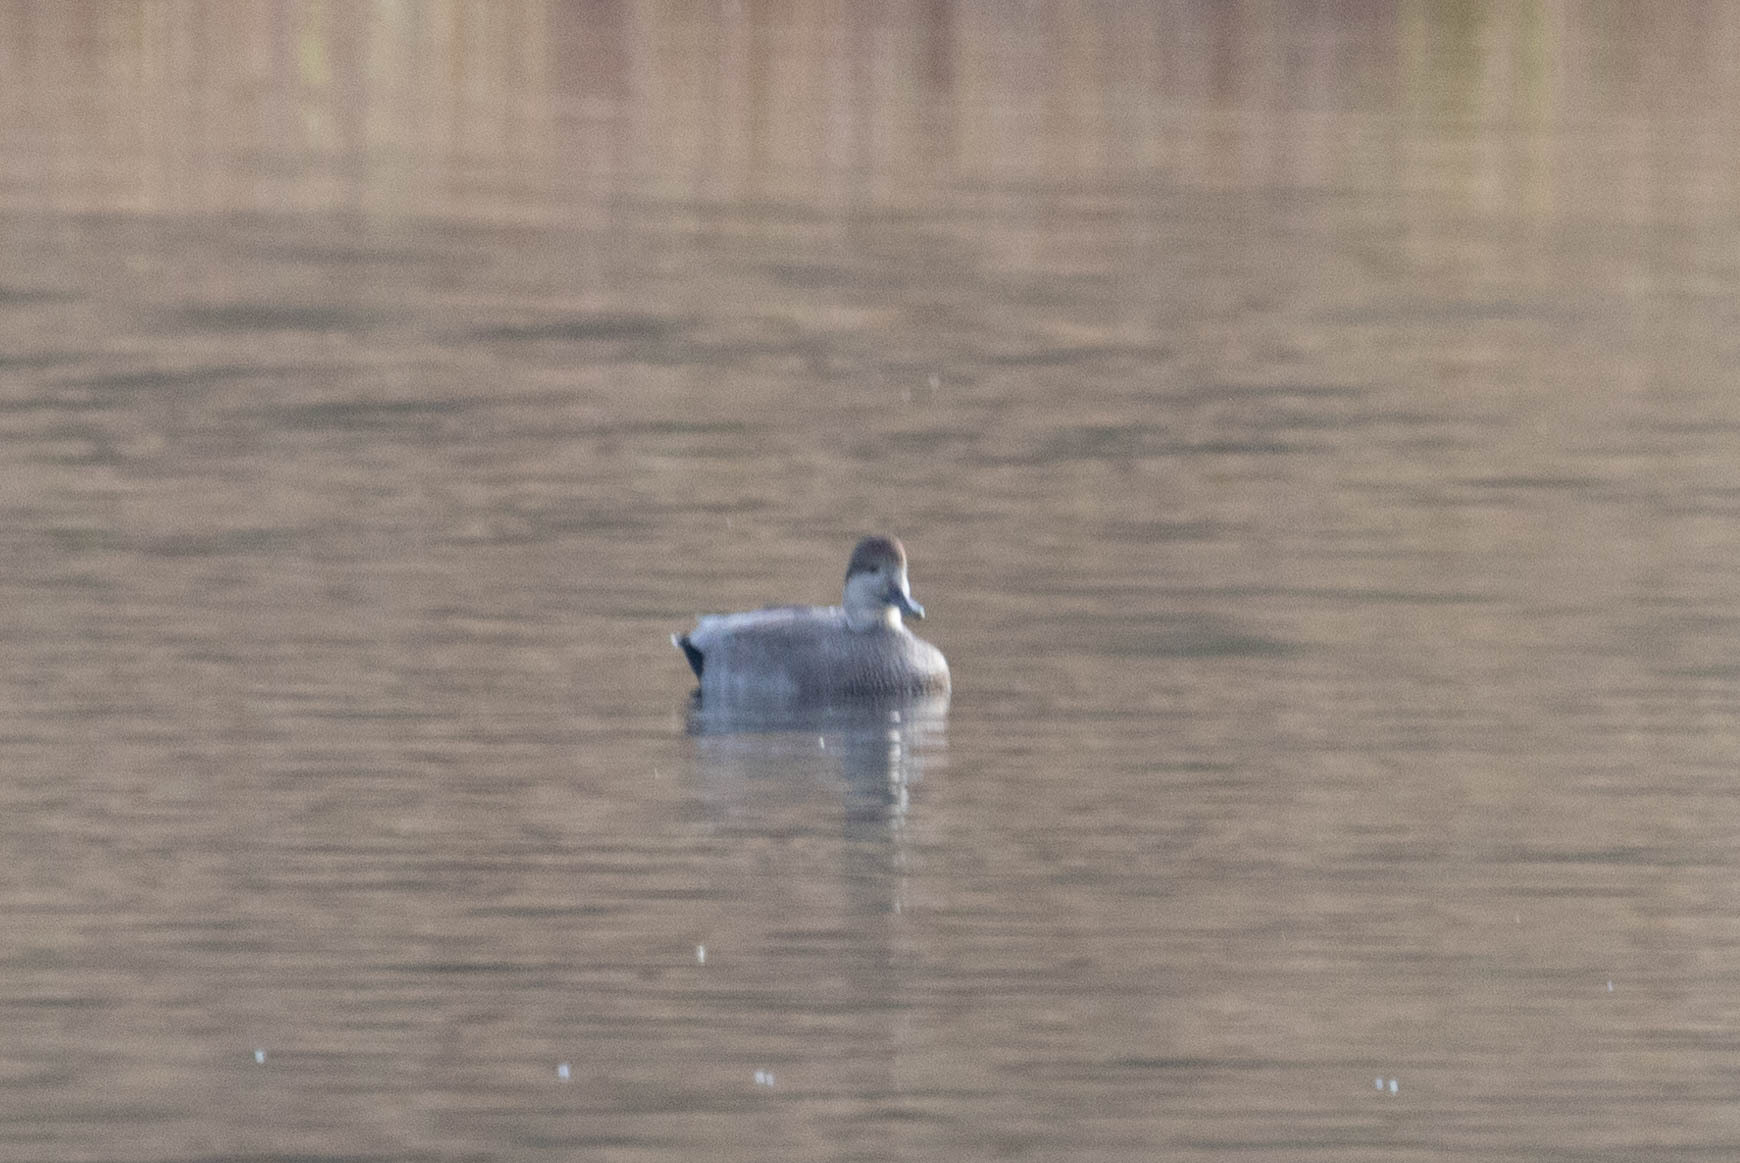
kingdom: Animalia
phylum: Chordata
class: Aves
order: Anseriformes
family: Anatidae
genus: Mareca
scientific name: Mareca strepera
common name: Gadwall
